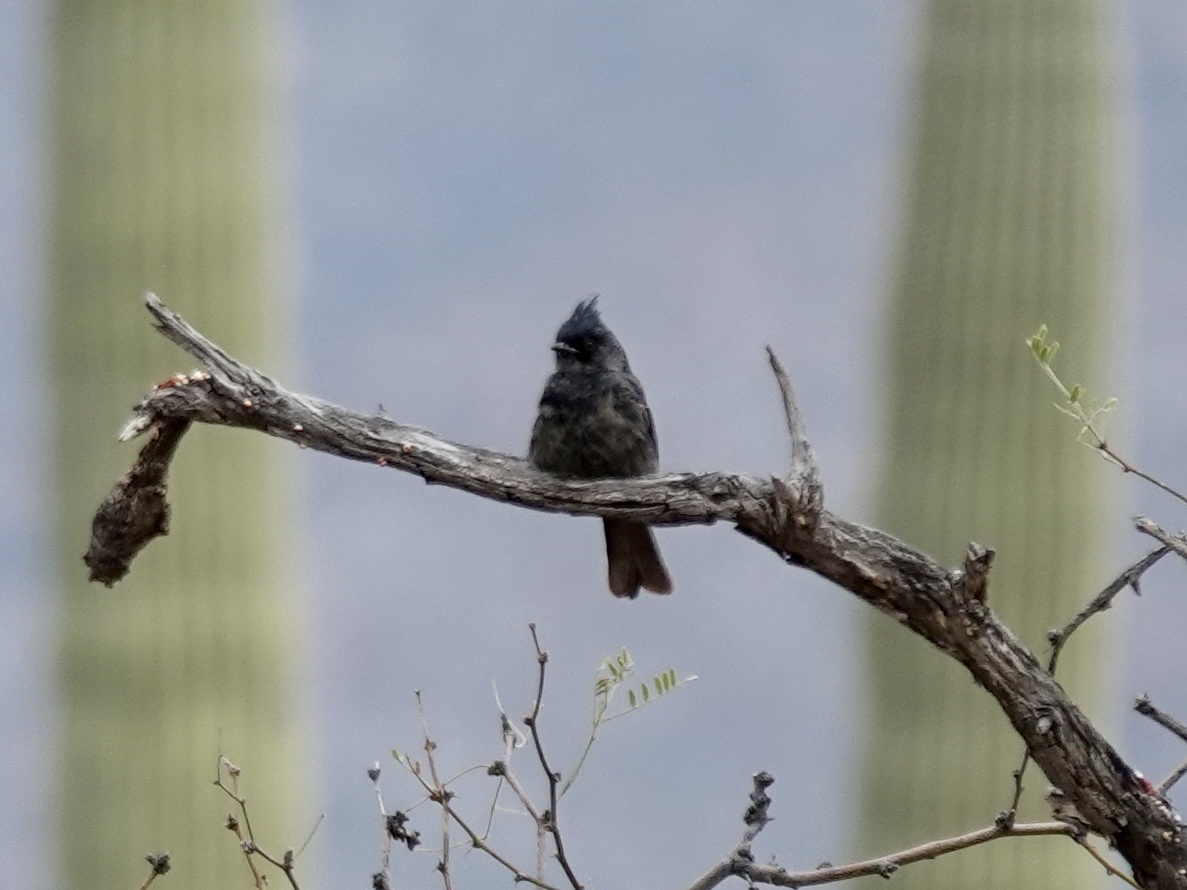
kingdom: Animalia
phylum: Chordata
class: Aves
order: Passeriformes
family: Ptilogonatidae
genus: Phainopepla
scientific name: Phainopepla nitens
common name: Phainopepla
